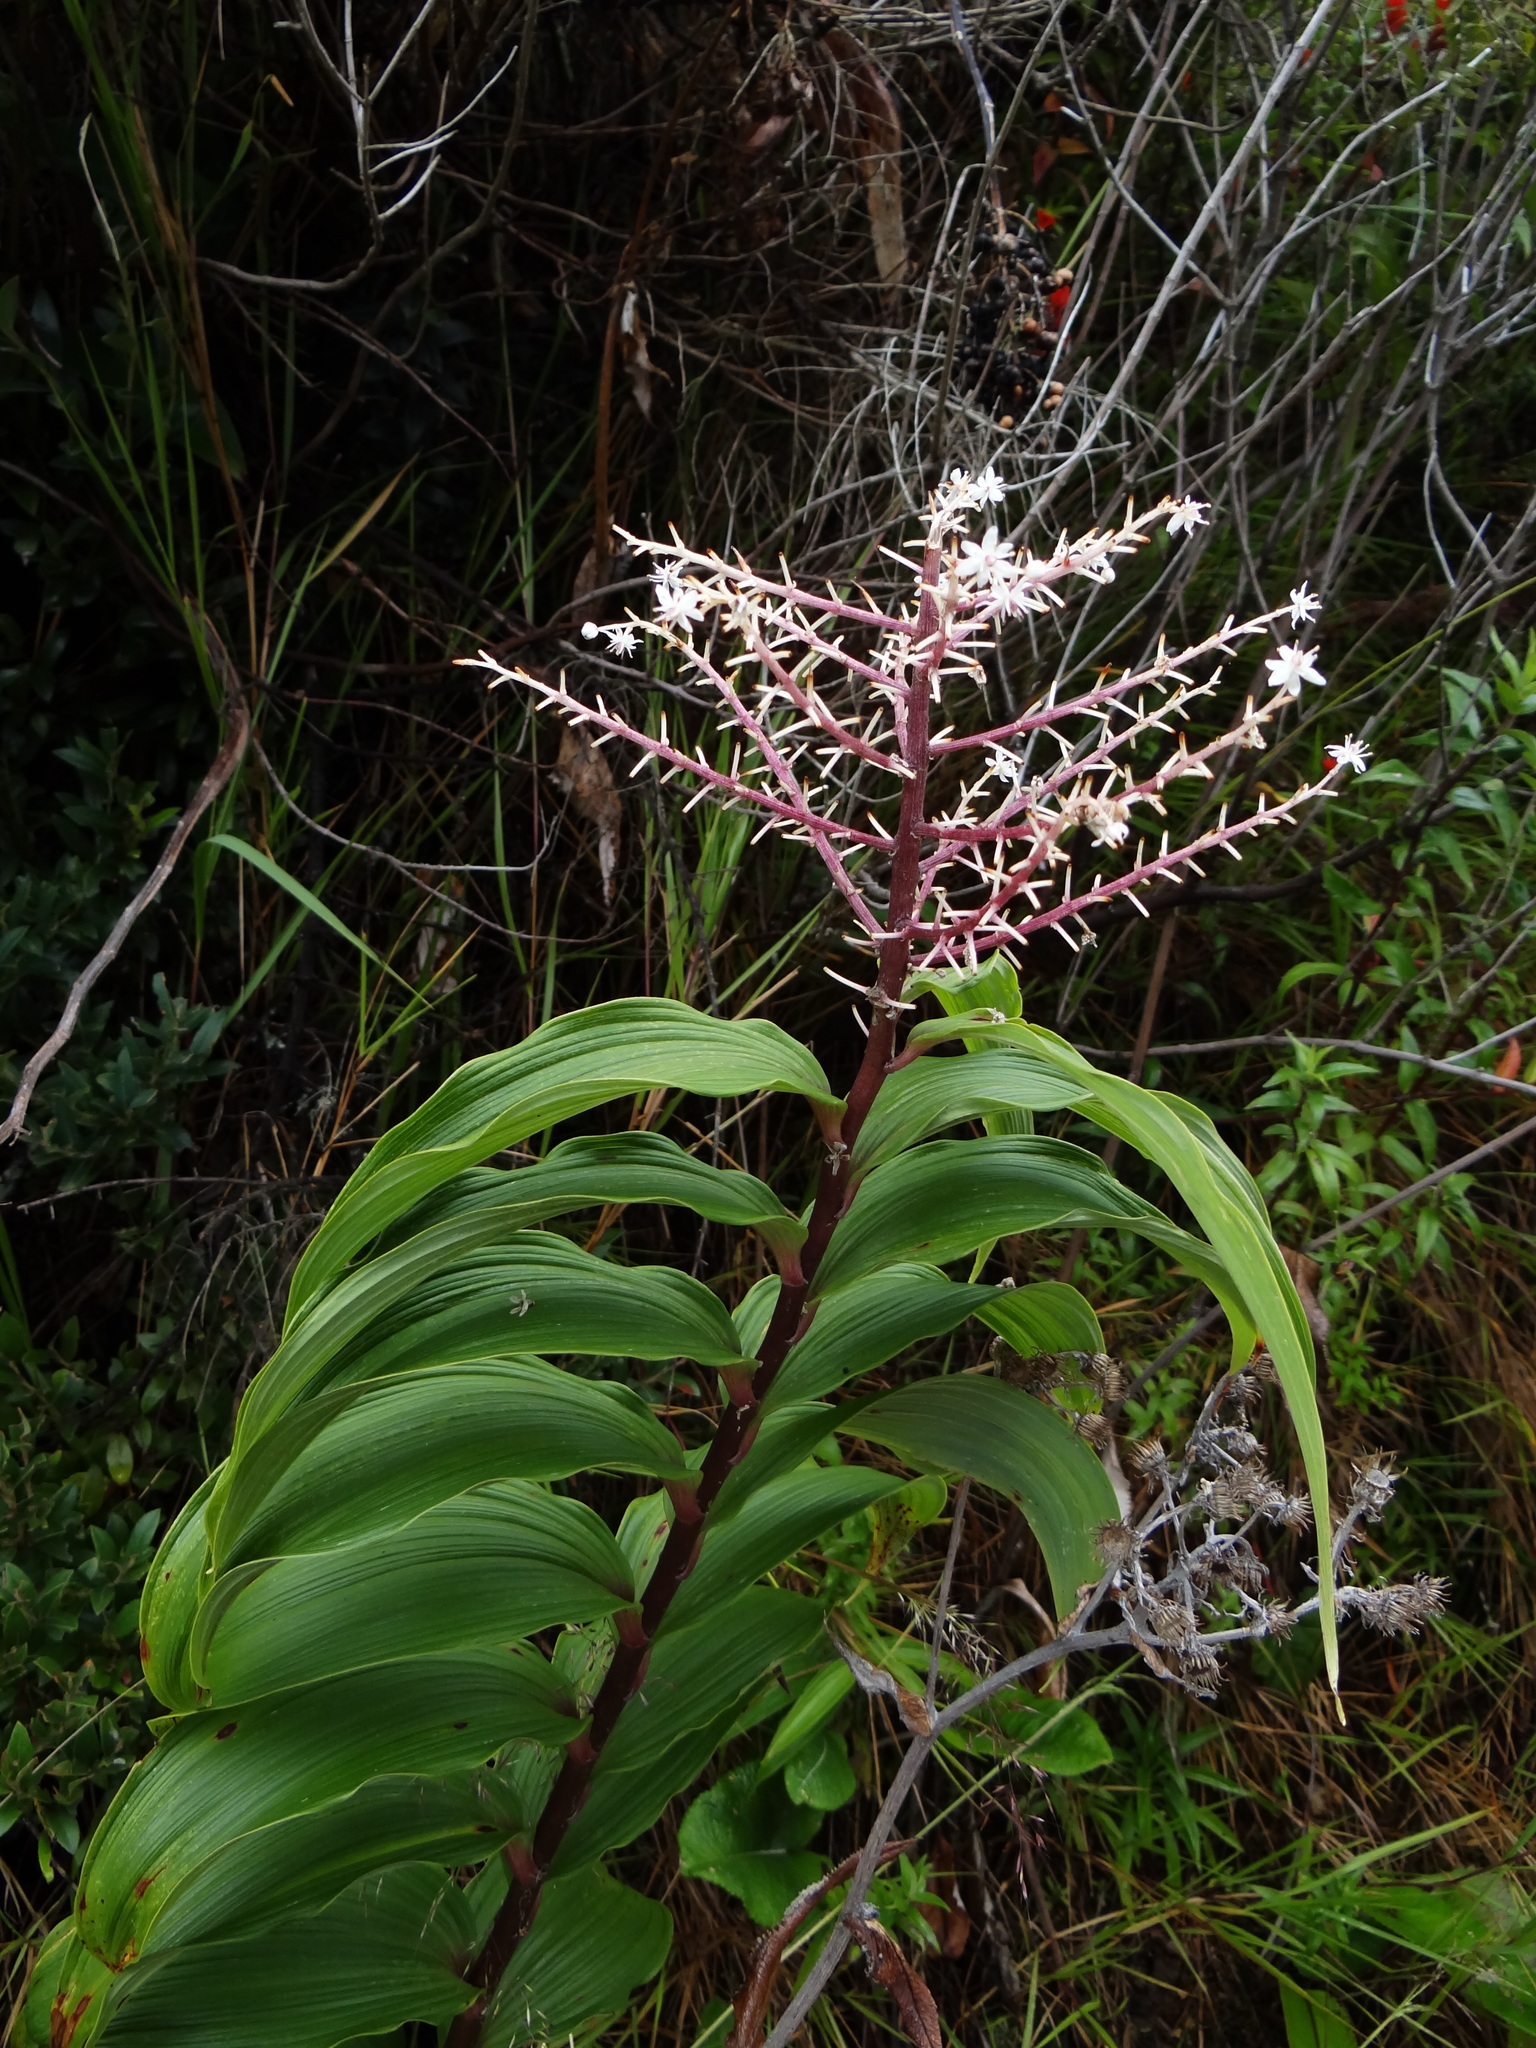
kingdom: Plantae
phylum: Tracheophyta
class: Liliopsida
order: Asparagales
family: Asparagaceae
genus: Maianthemum
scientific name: Maianthemum gigas
